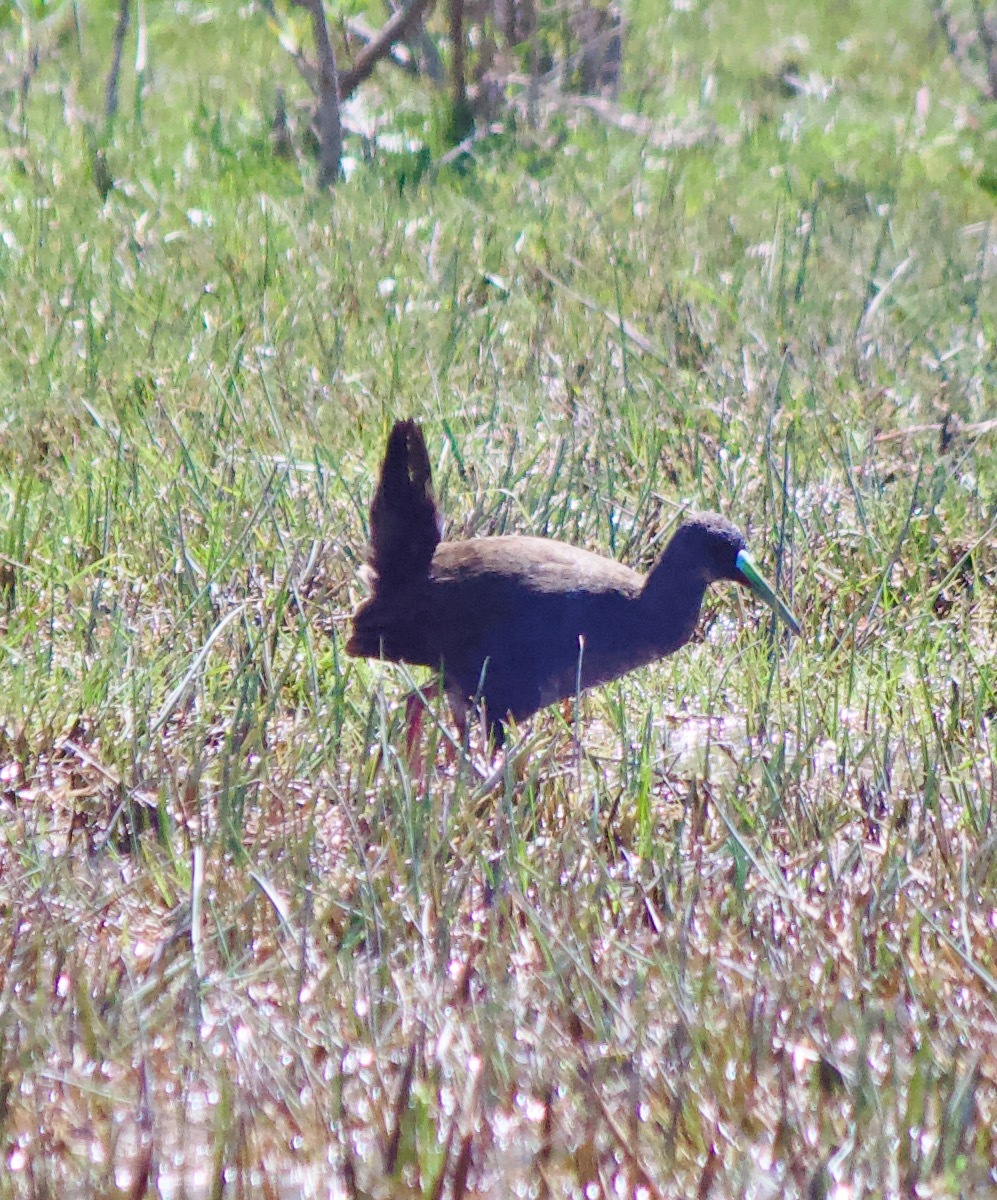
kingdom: Animalia
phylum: Chordata
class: Aves
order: Gruiformes
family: Rallidae
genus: Pardirallus
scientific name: Pardirallus sanguinolentus
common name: Plumbeous rail
